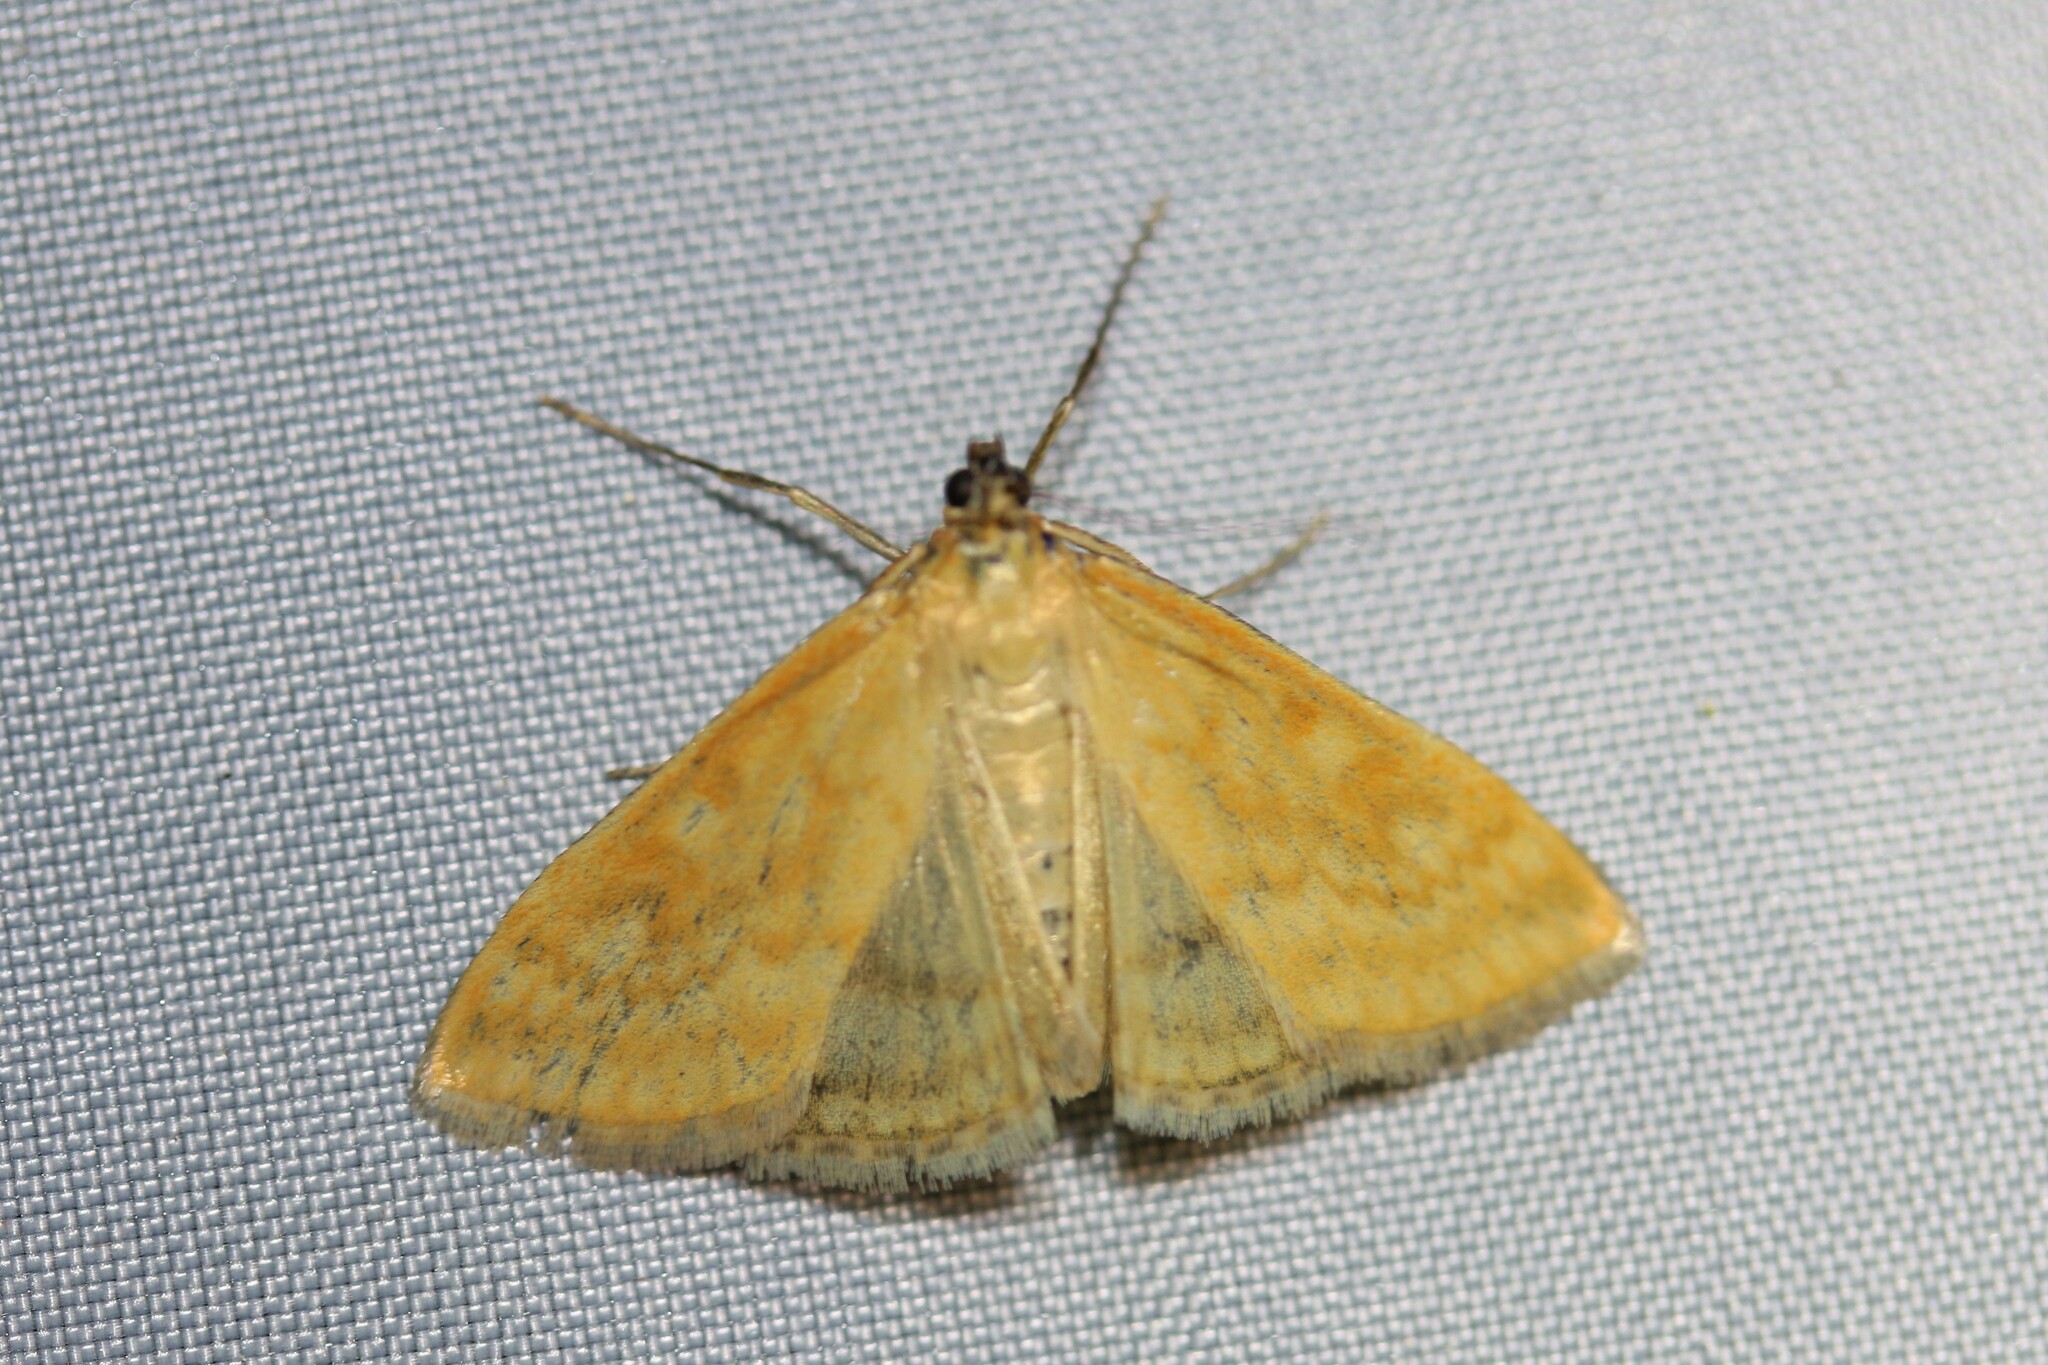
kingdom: Animalia
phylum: Arthropoda
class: Insecta
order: Lepidoptera
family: Crambidae
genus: Sitochroa
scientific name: Sitochroa verticalis
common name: Lesser pearl
